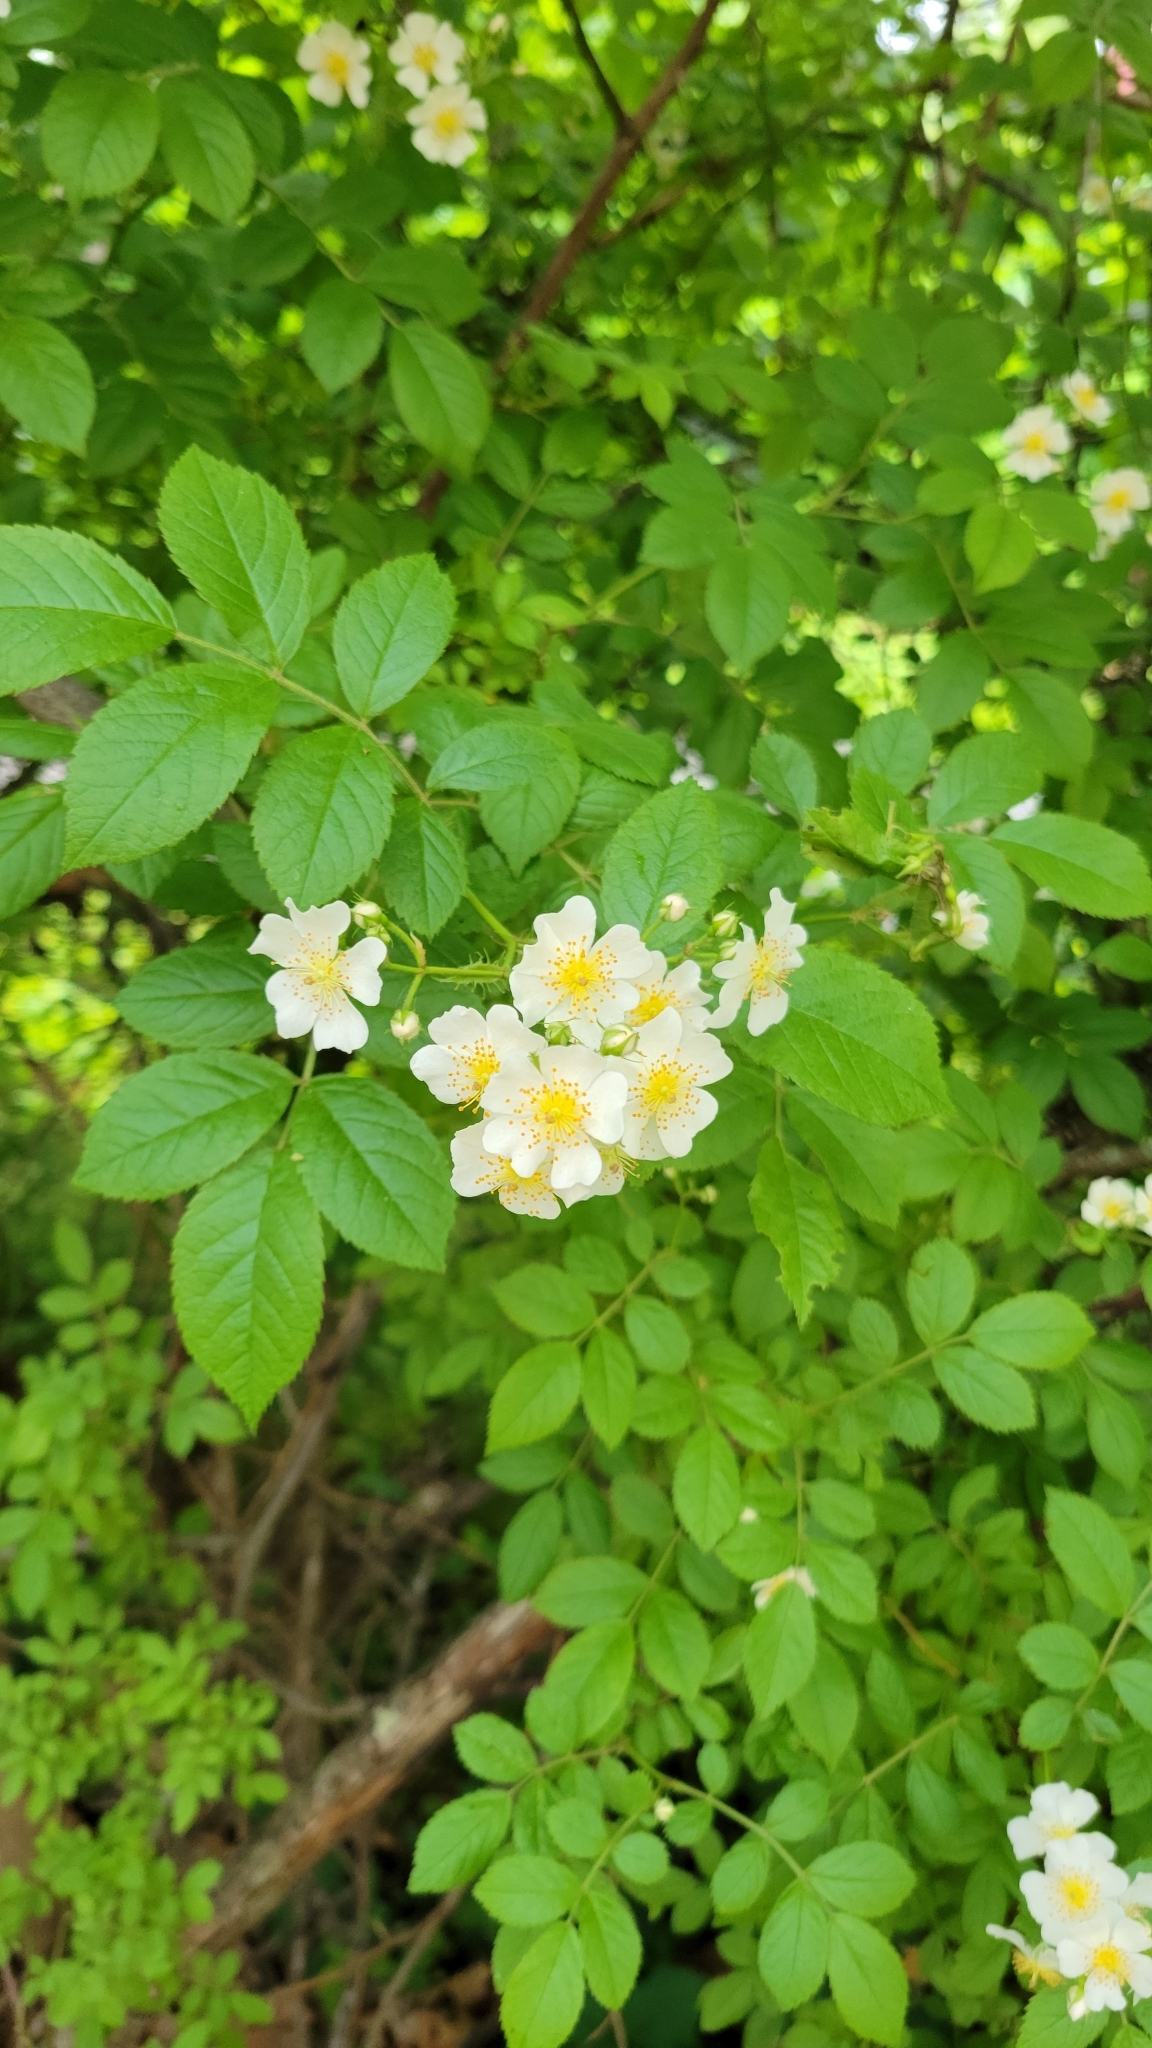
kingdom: Plantae
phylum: Tracheophyta
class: Magnoliopsida
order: Rosales
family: Rosaceae
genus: Rosa
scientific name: Rosa multiflora
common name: Multiflora rose
